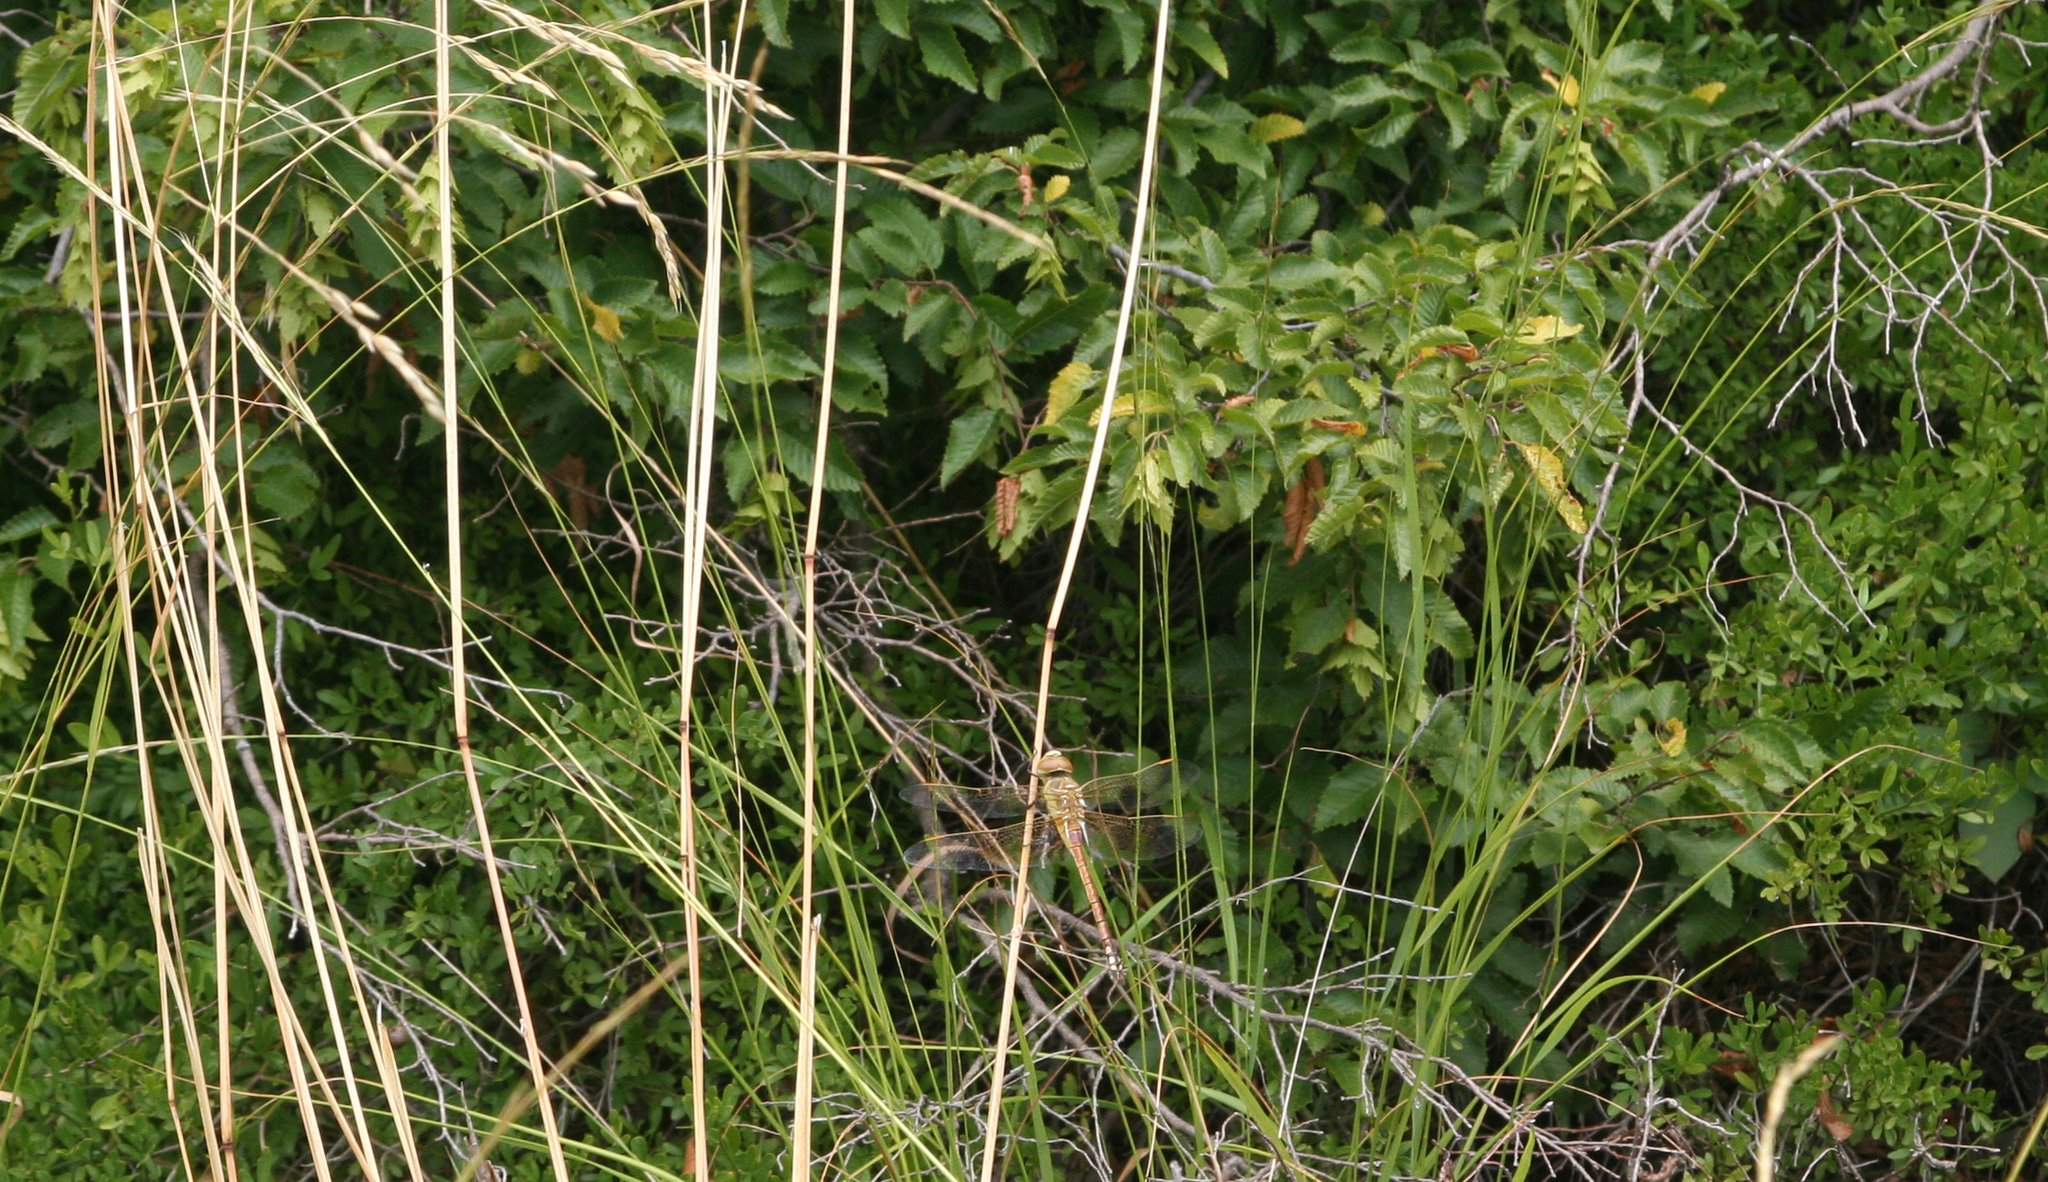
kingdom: Plantae
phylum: Tracheophyta
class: Magnoliopsida
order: Fagales
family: Betulaceae
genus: Carpinus
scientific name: Carpinus orientalis
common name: Eastern hornbeam
